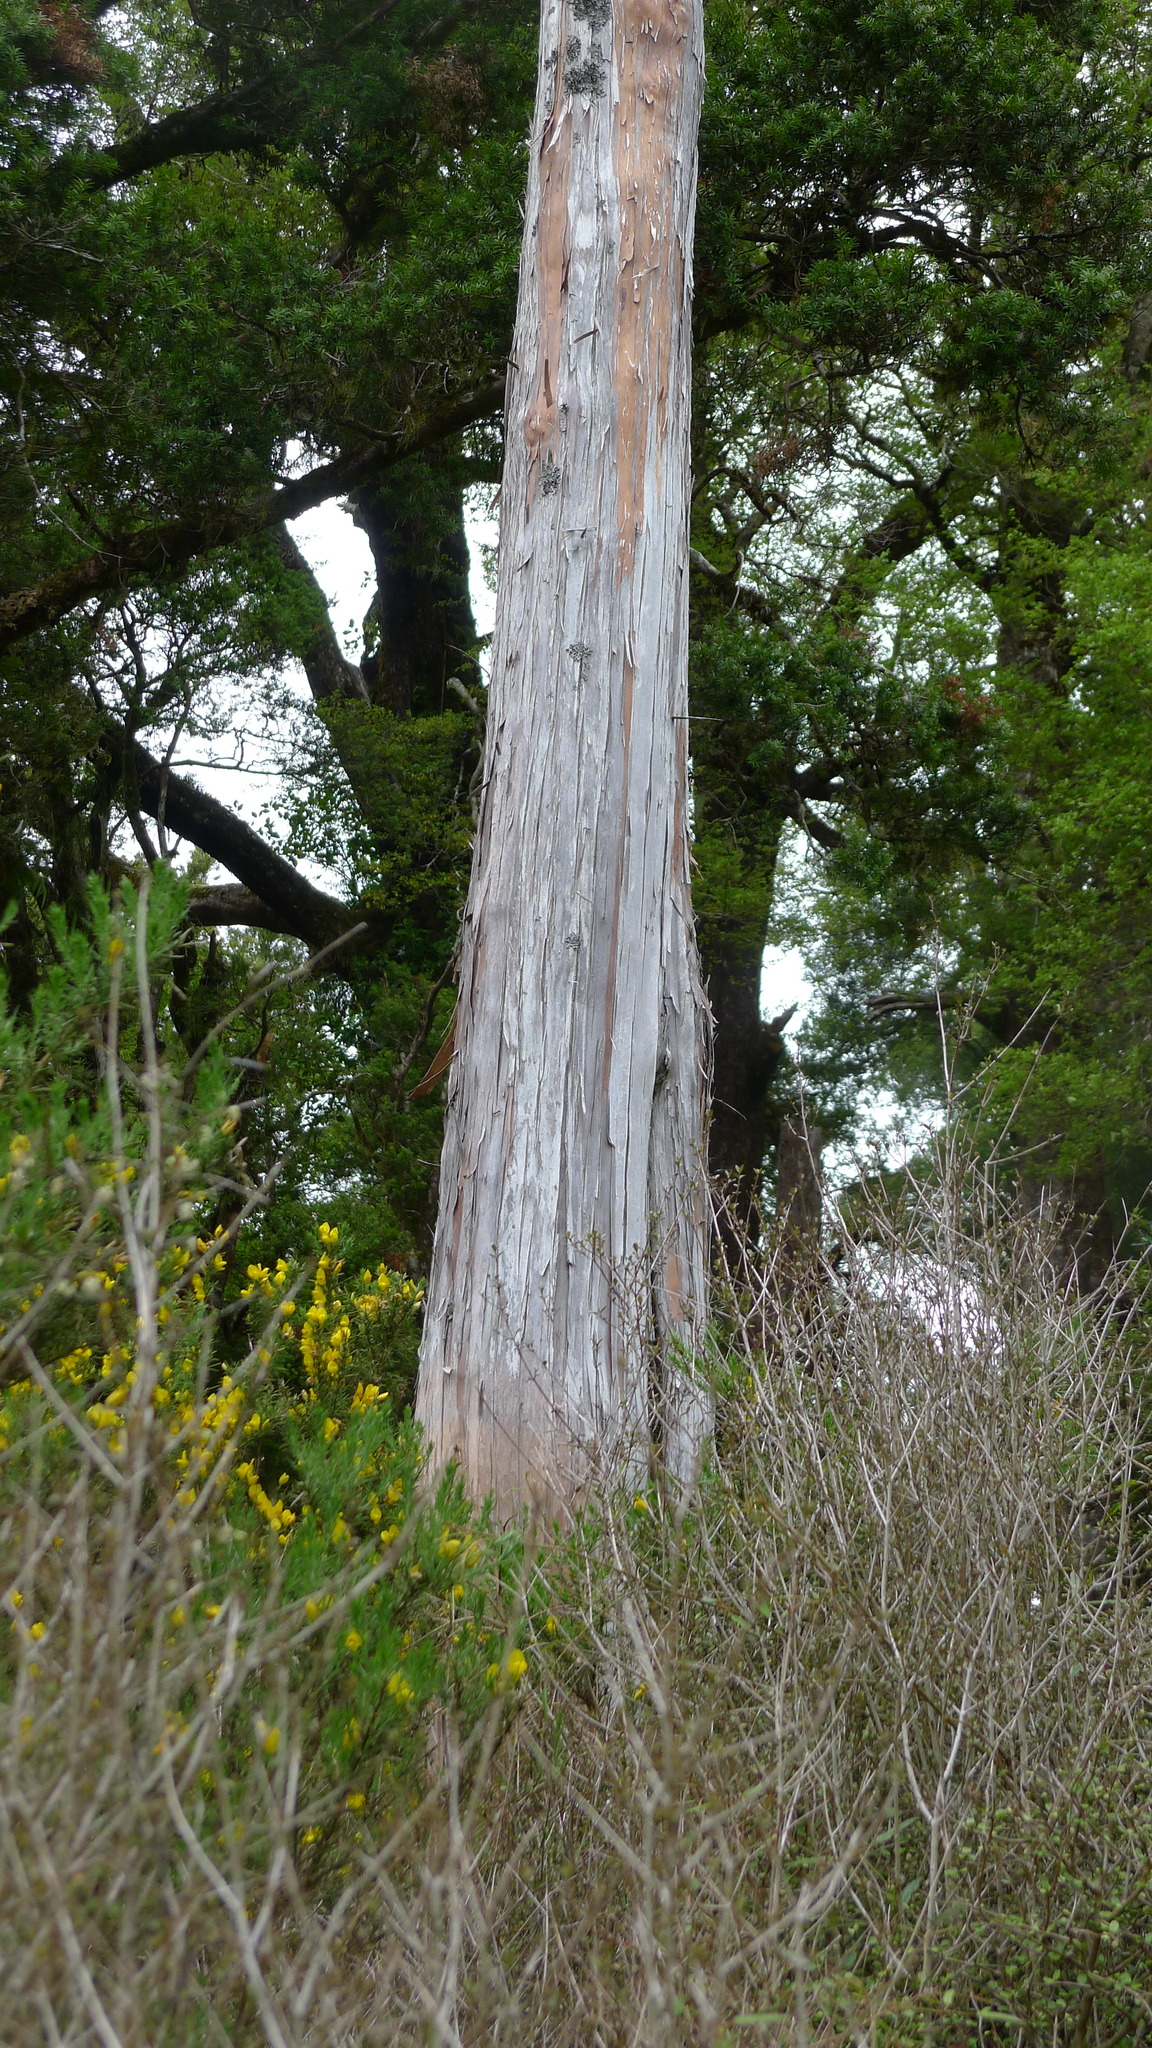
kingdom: Plantae
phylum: Tracheophyta
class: Pinopsida
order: Pinales
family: Cupressaceae
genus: Libocedrus
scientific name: Libocedrus bidwillii
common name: Cedar
